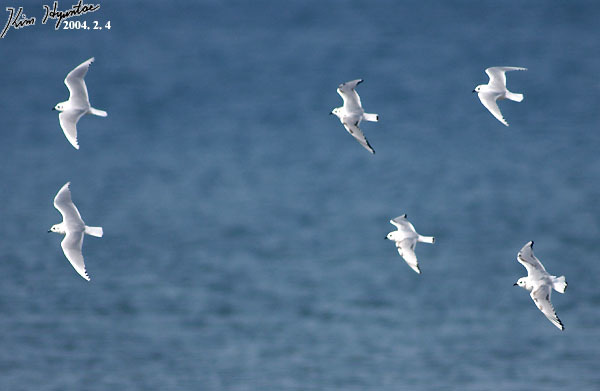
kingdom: Animalia
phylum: Chordata
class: Aves
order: Charadriiformes
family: Laridae
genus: Chroicocephalus
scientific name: Chroicocephalus saundersi
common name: Saunders's gull
